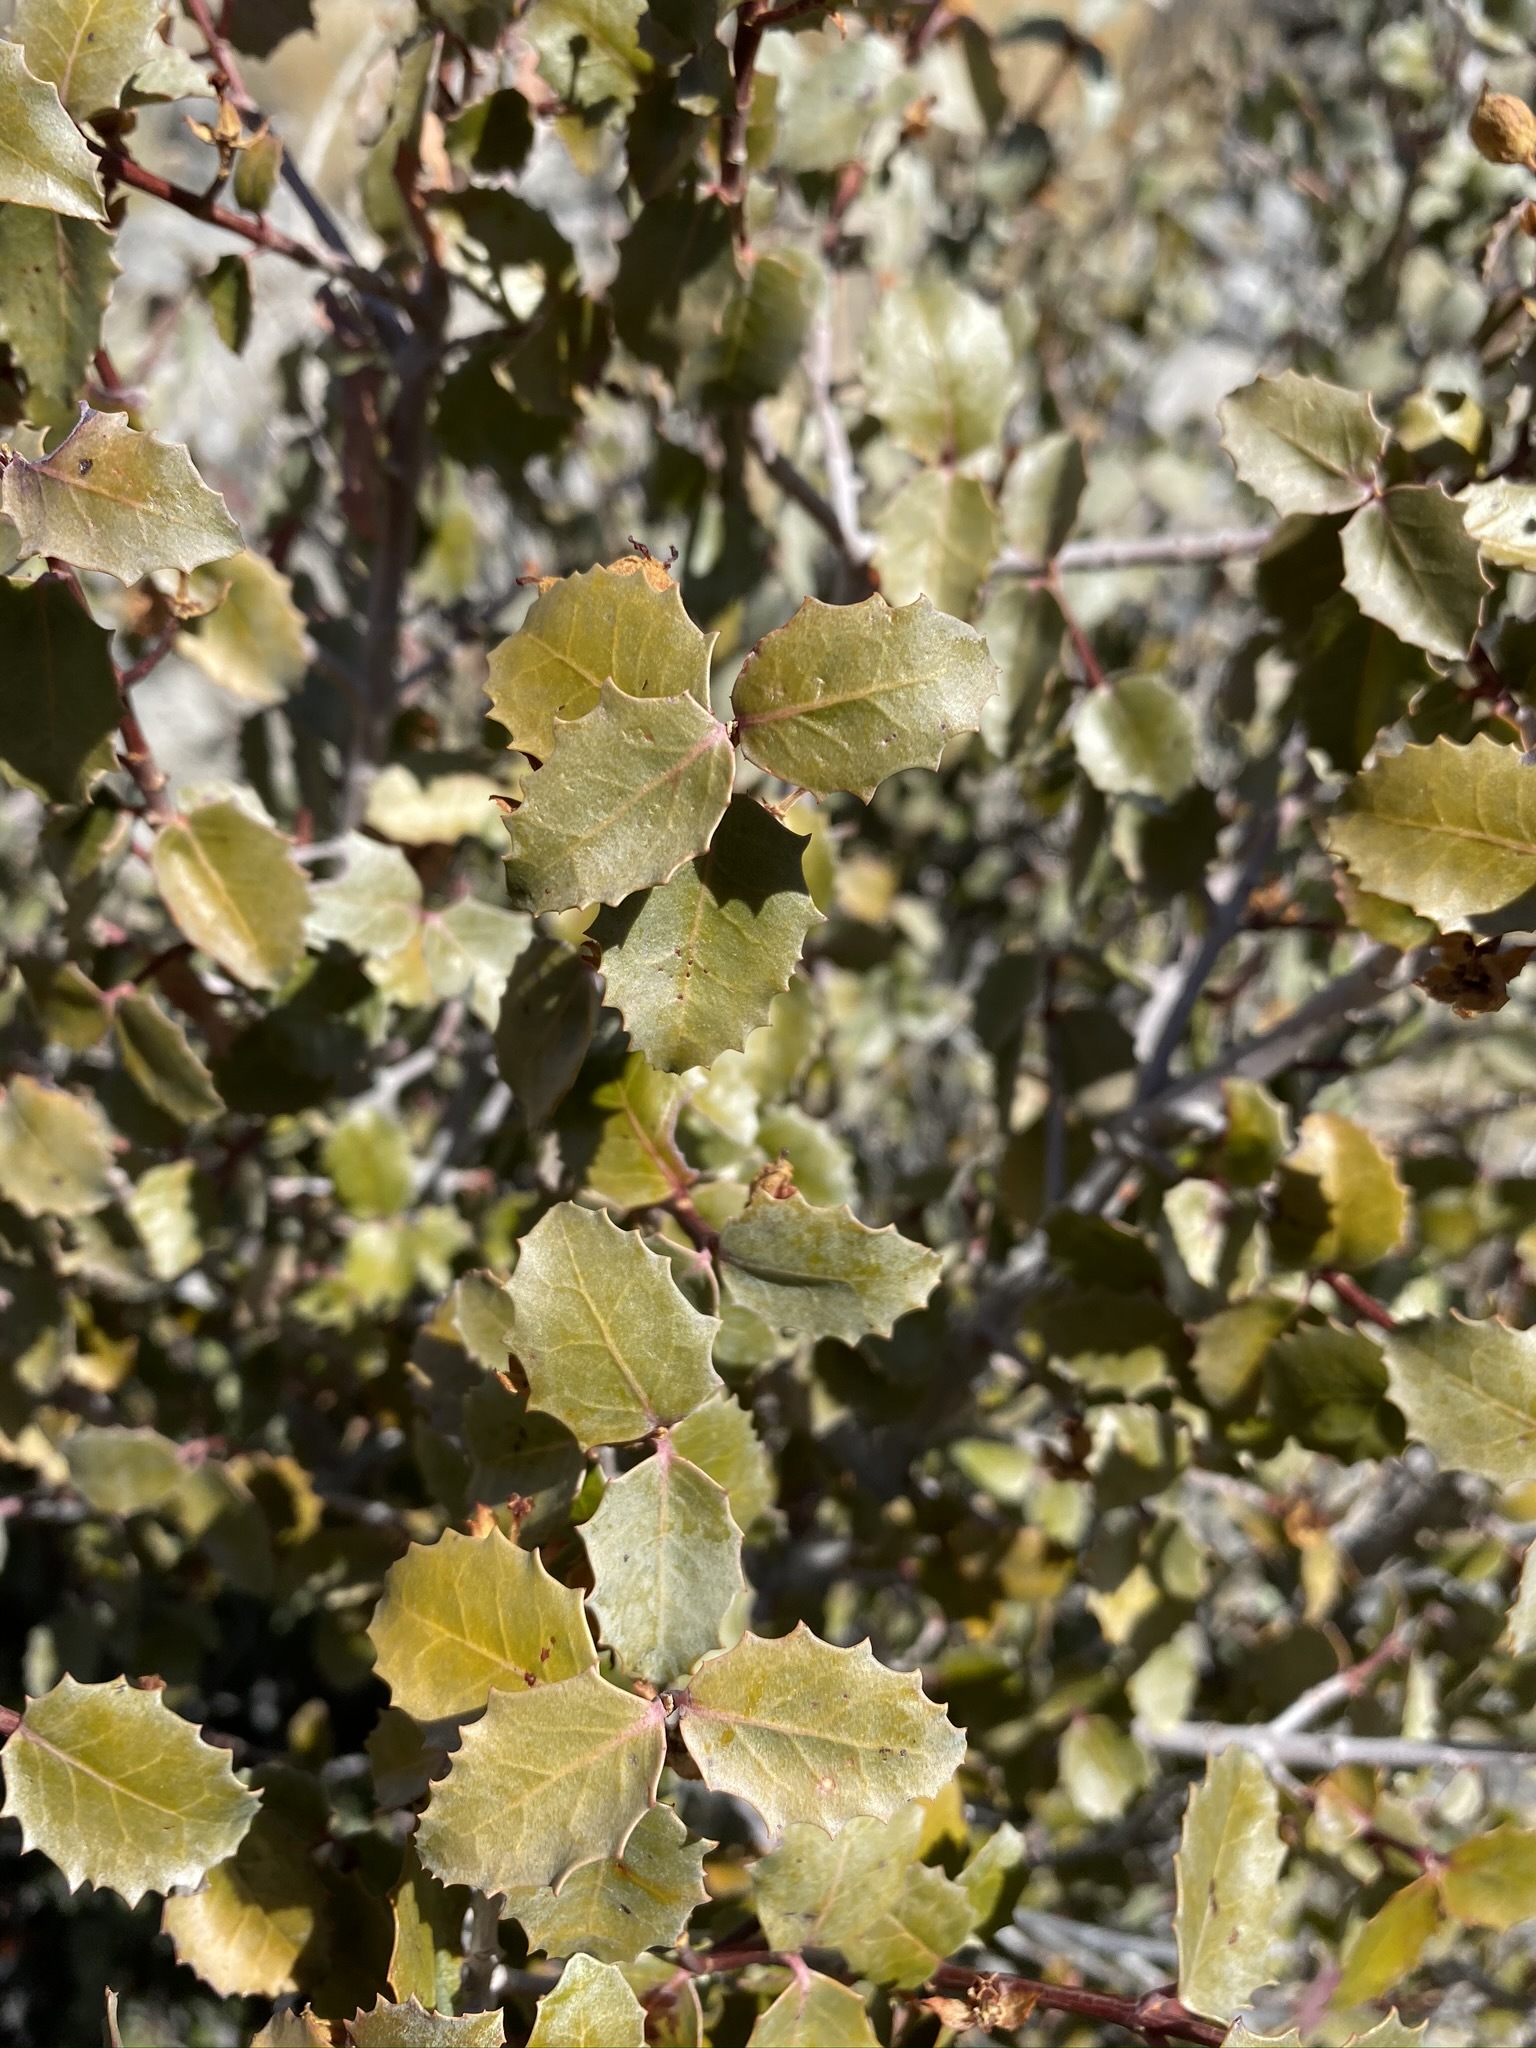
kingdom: Plantae
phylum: Tracheophyta
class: Magnoliopsida
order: Malpighiales
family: Picrodendraceae
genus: Tetracoccus
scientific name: Tetracoccus ilicifolius
